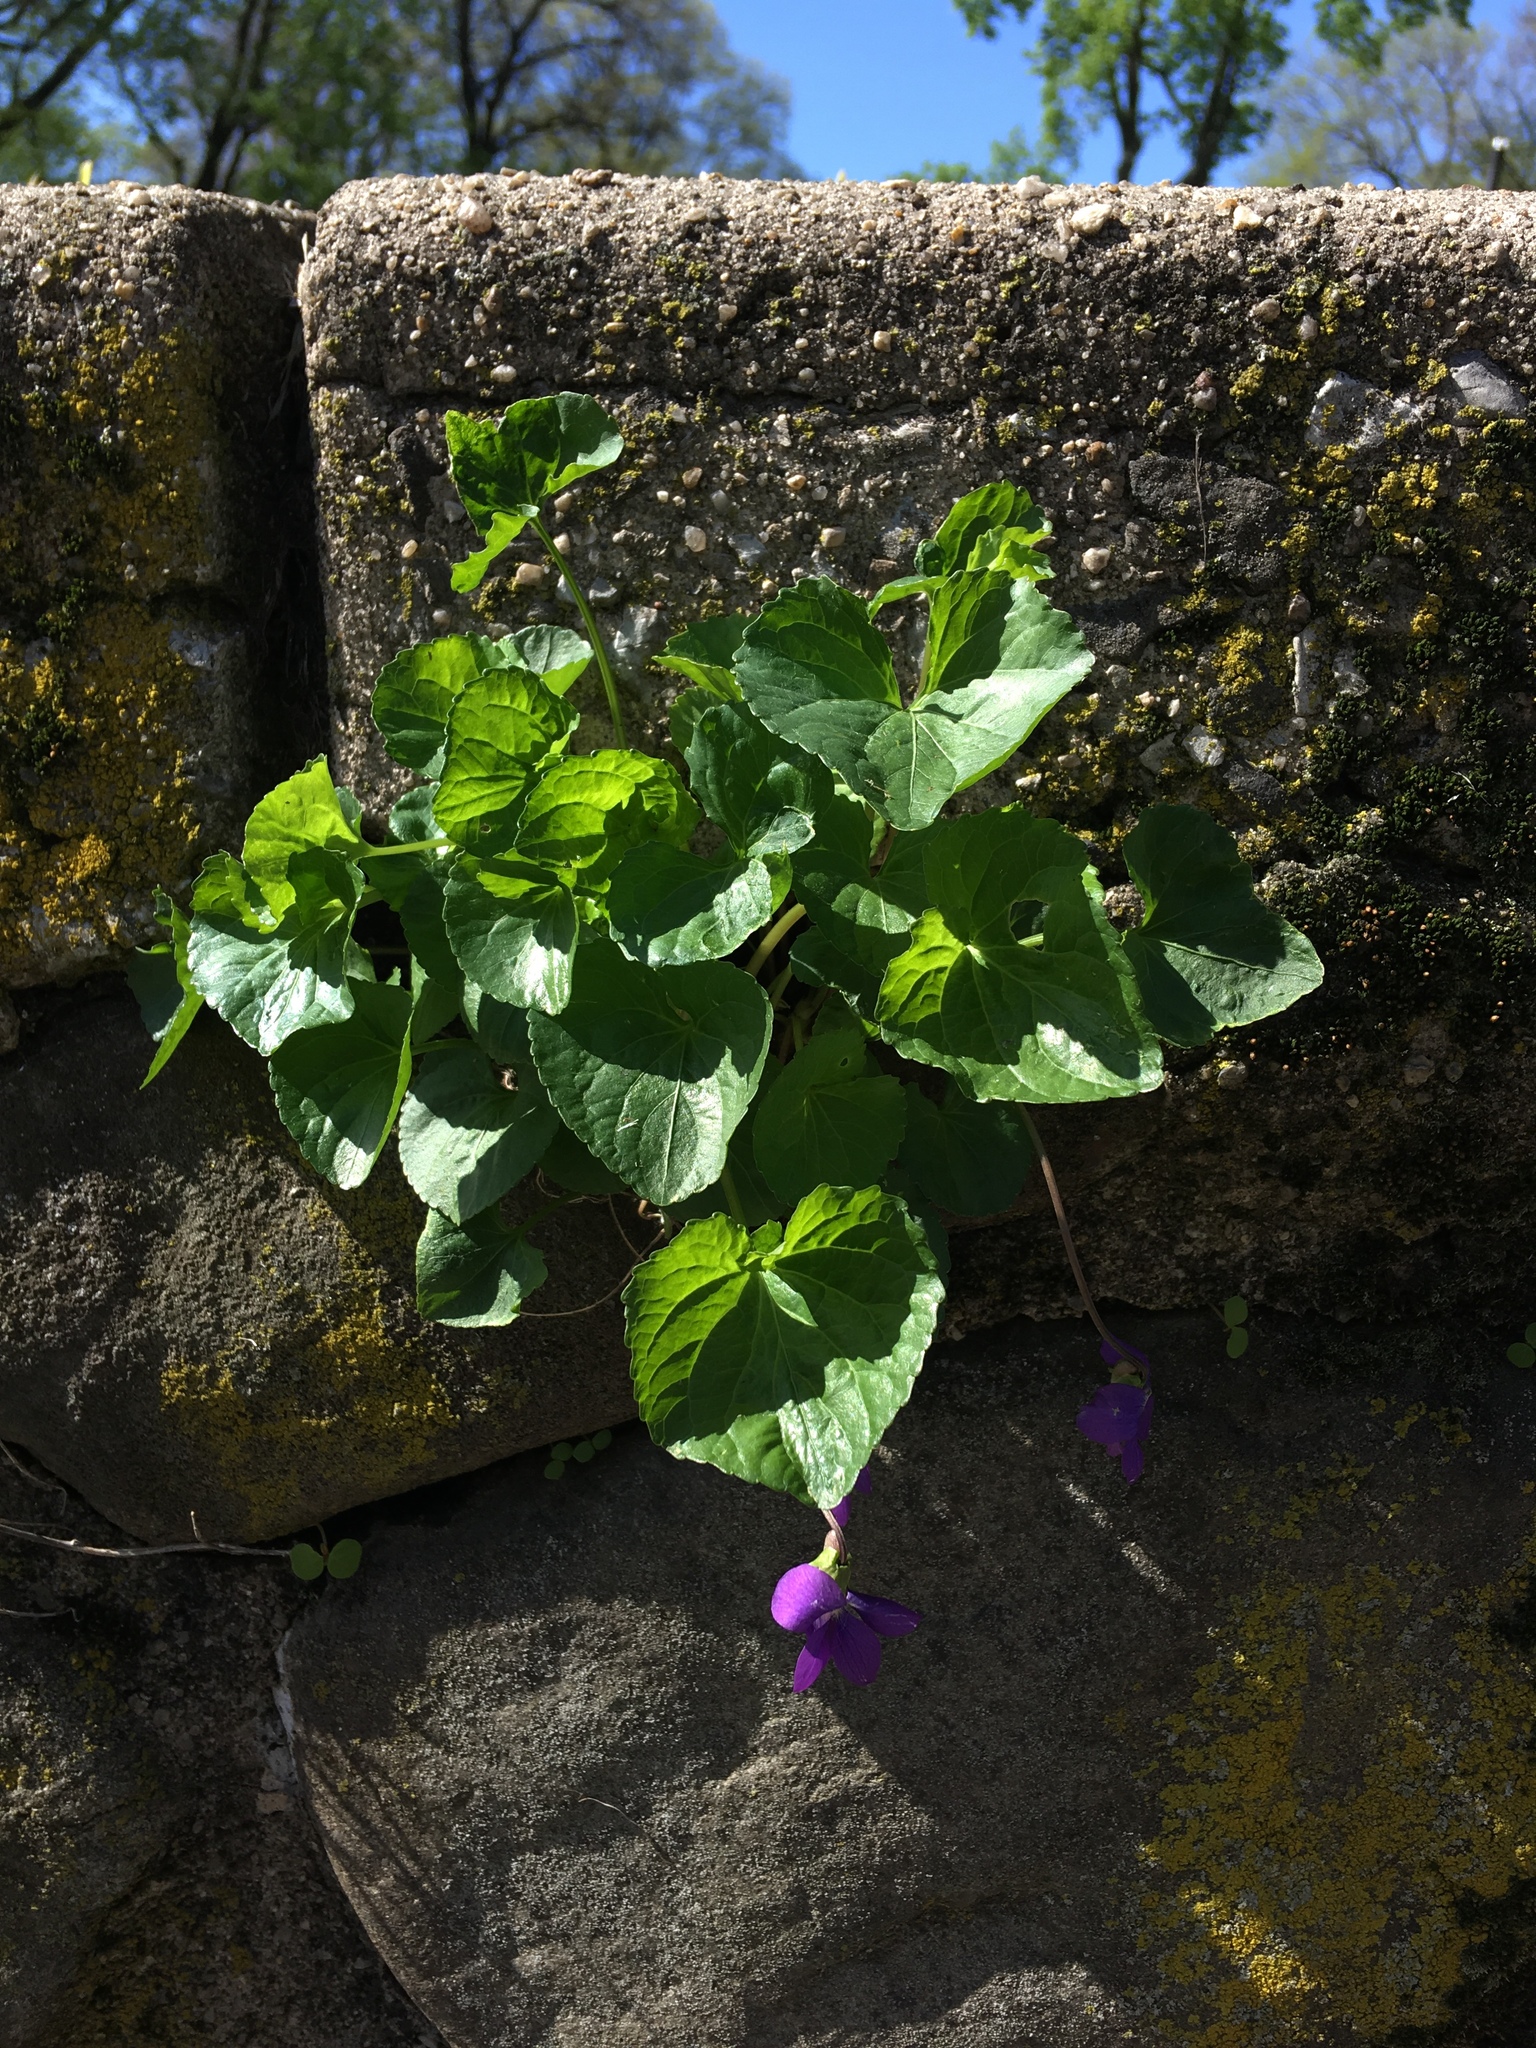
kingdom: Plantae
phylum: Tracheophyta
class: Magnoliopsida
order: Malpighiales
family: Violaceae
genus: Viola
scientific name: Viola sororia
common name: Dooryard violet
